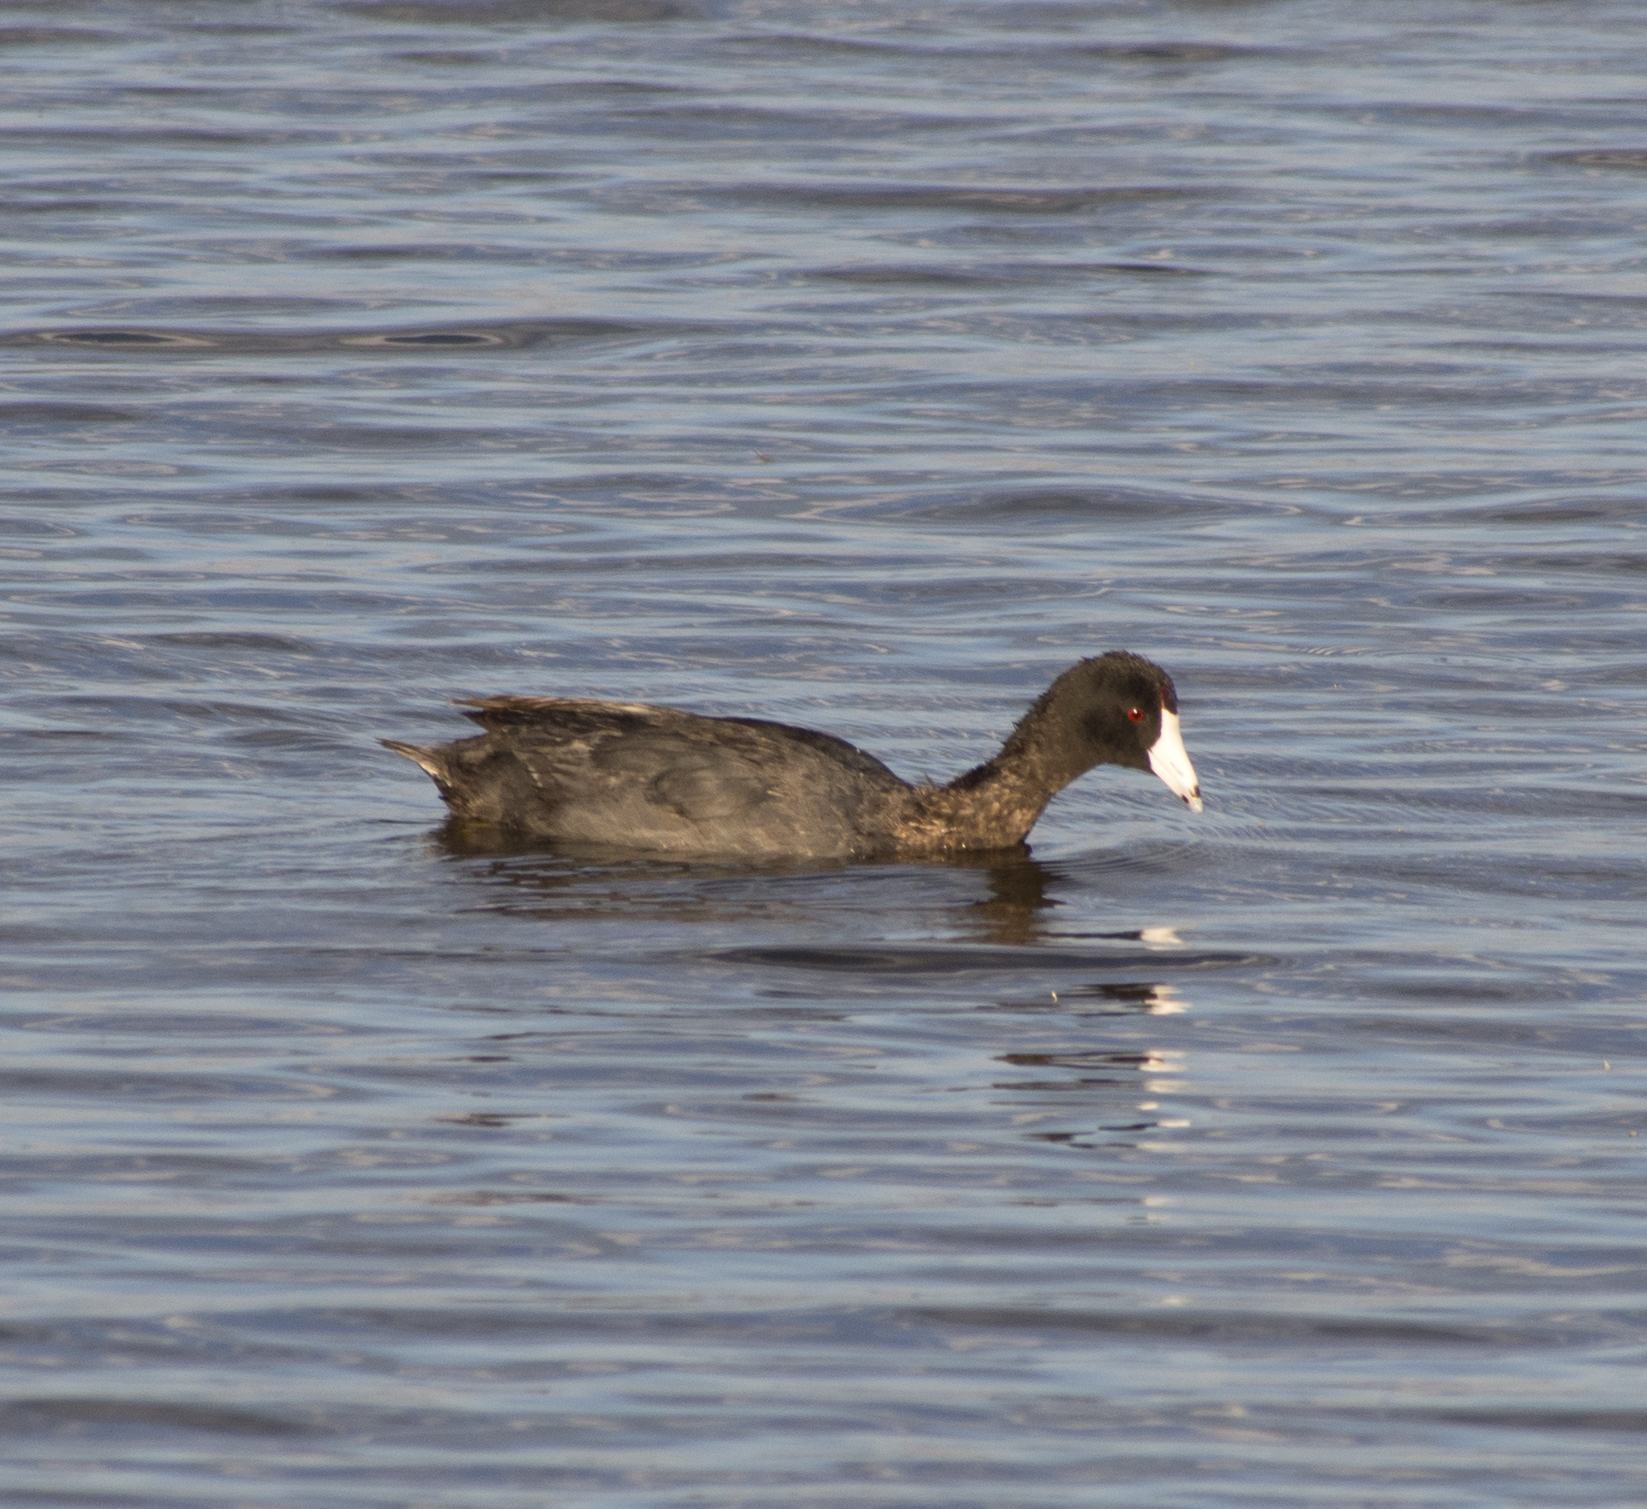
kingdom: Animalia
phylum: Chordata
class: Aves
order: Gruiformes
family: Rallidae
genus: Fulica
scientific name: Fulica americana
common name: American coot
